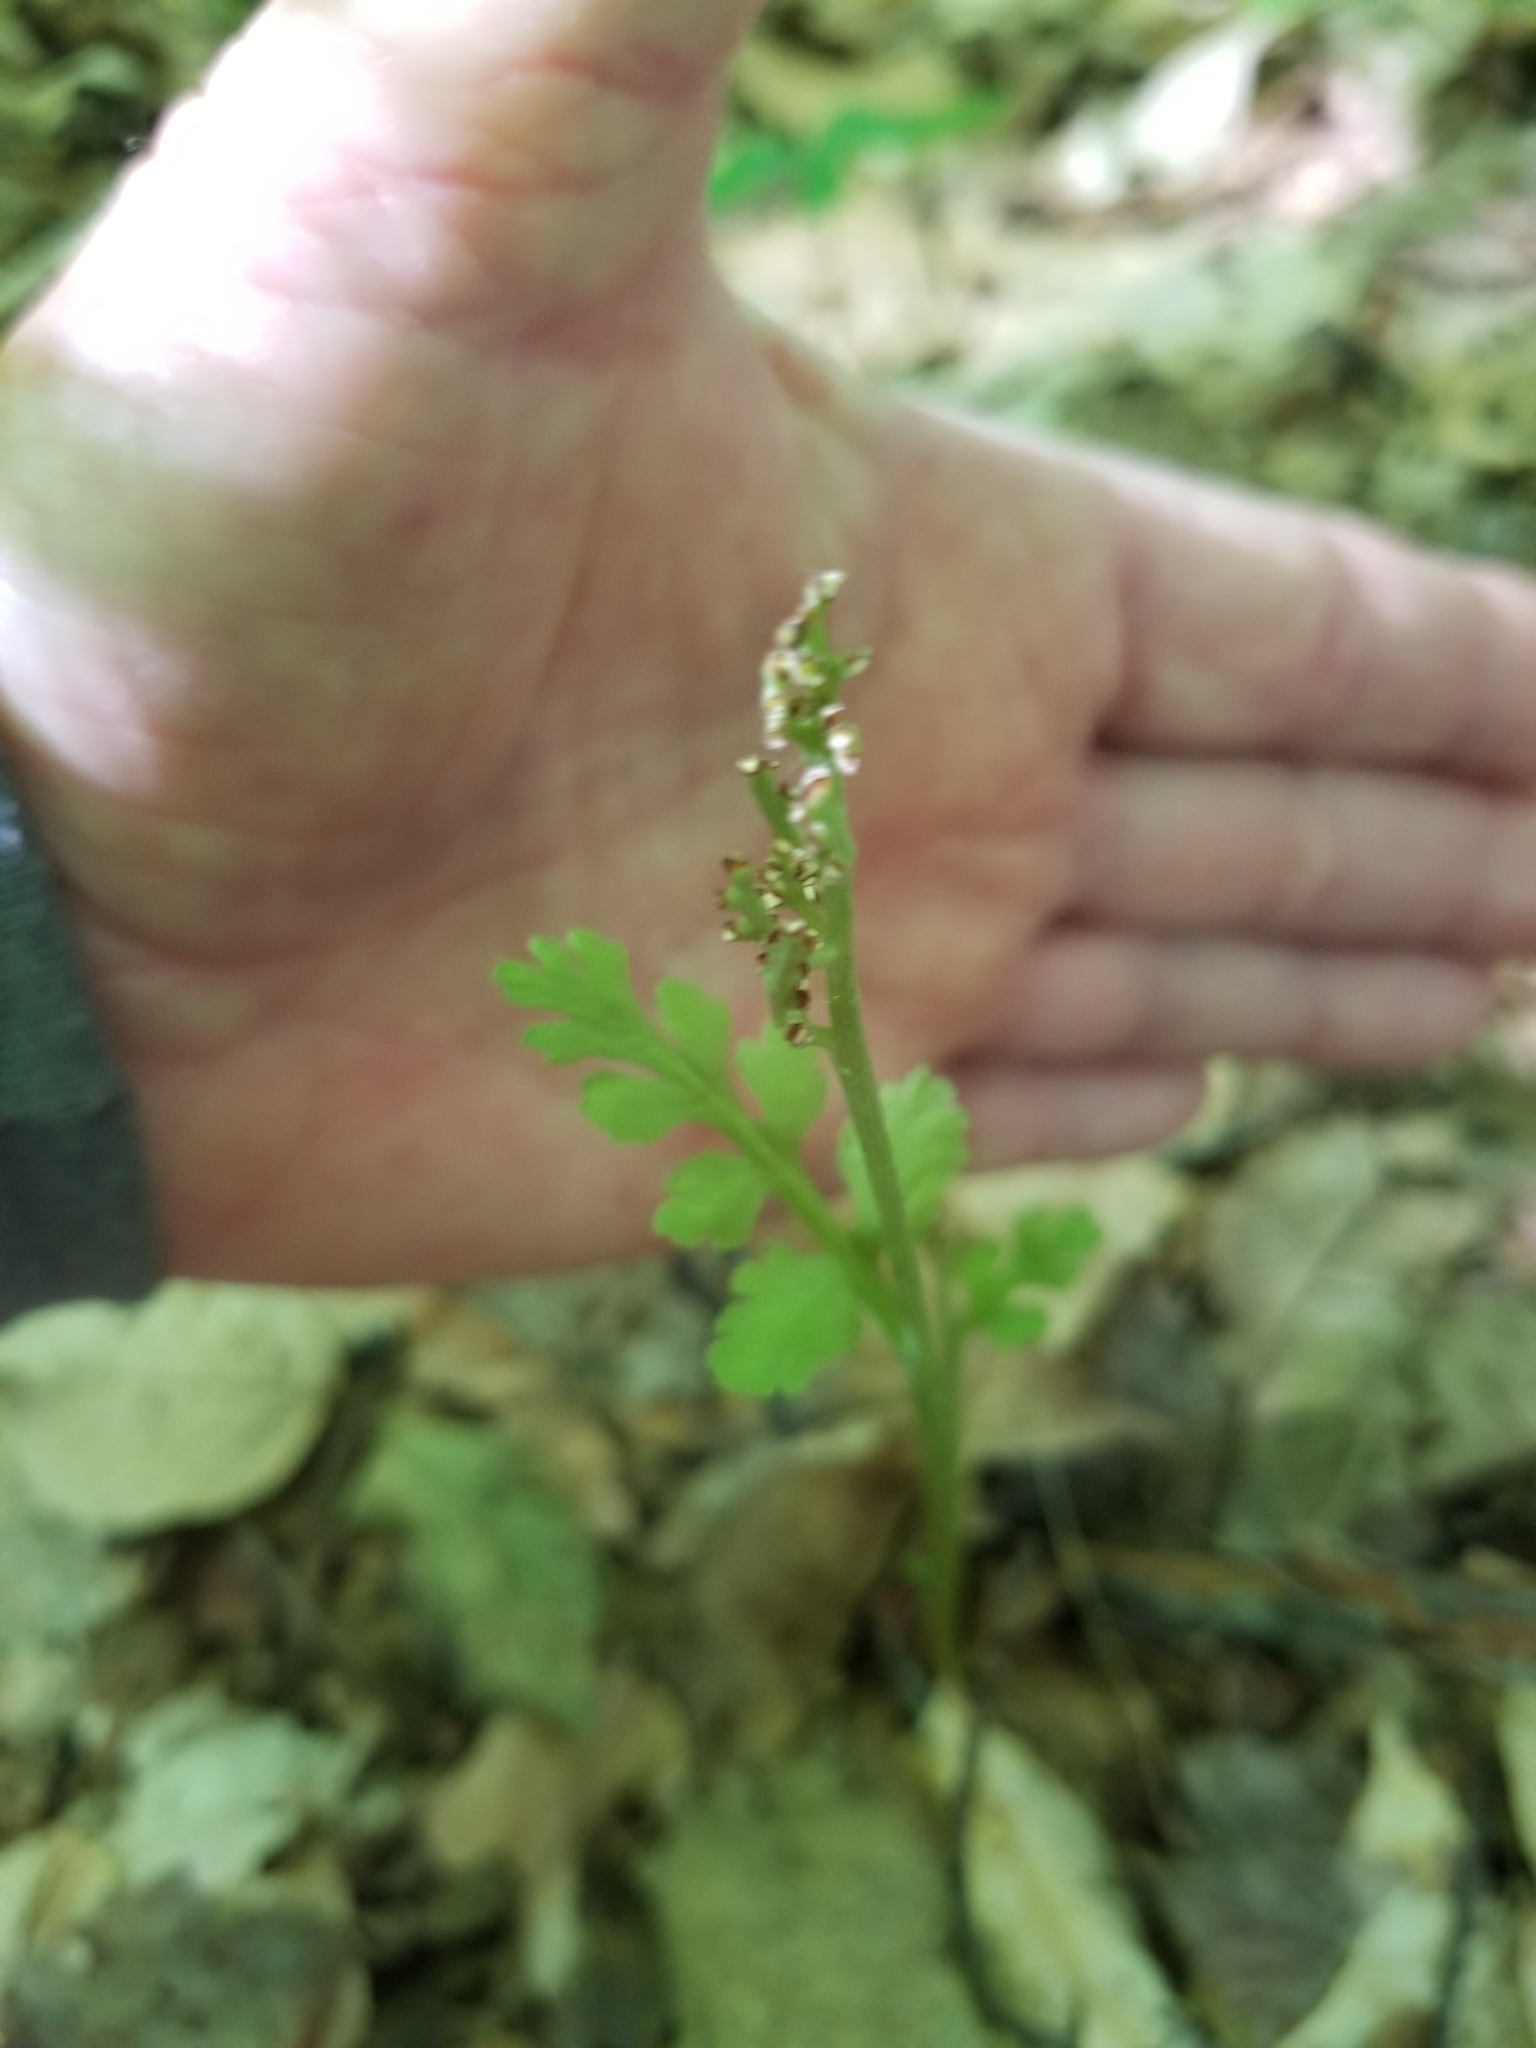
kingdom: Plantae
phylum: Tracheophyta
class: Polypodiopsida
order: Ophioglossales
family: Ophioglossaceae
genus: Botrychium
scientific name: Botrychium matricariifolium
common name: Branched moonwort
